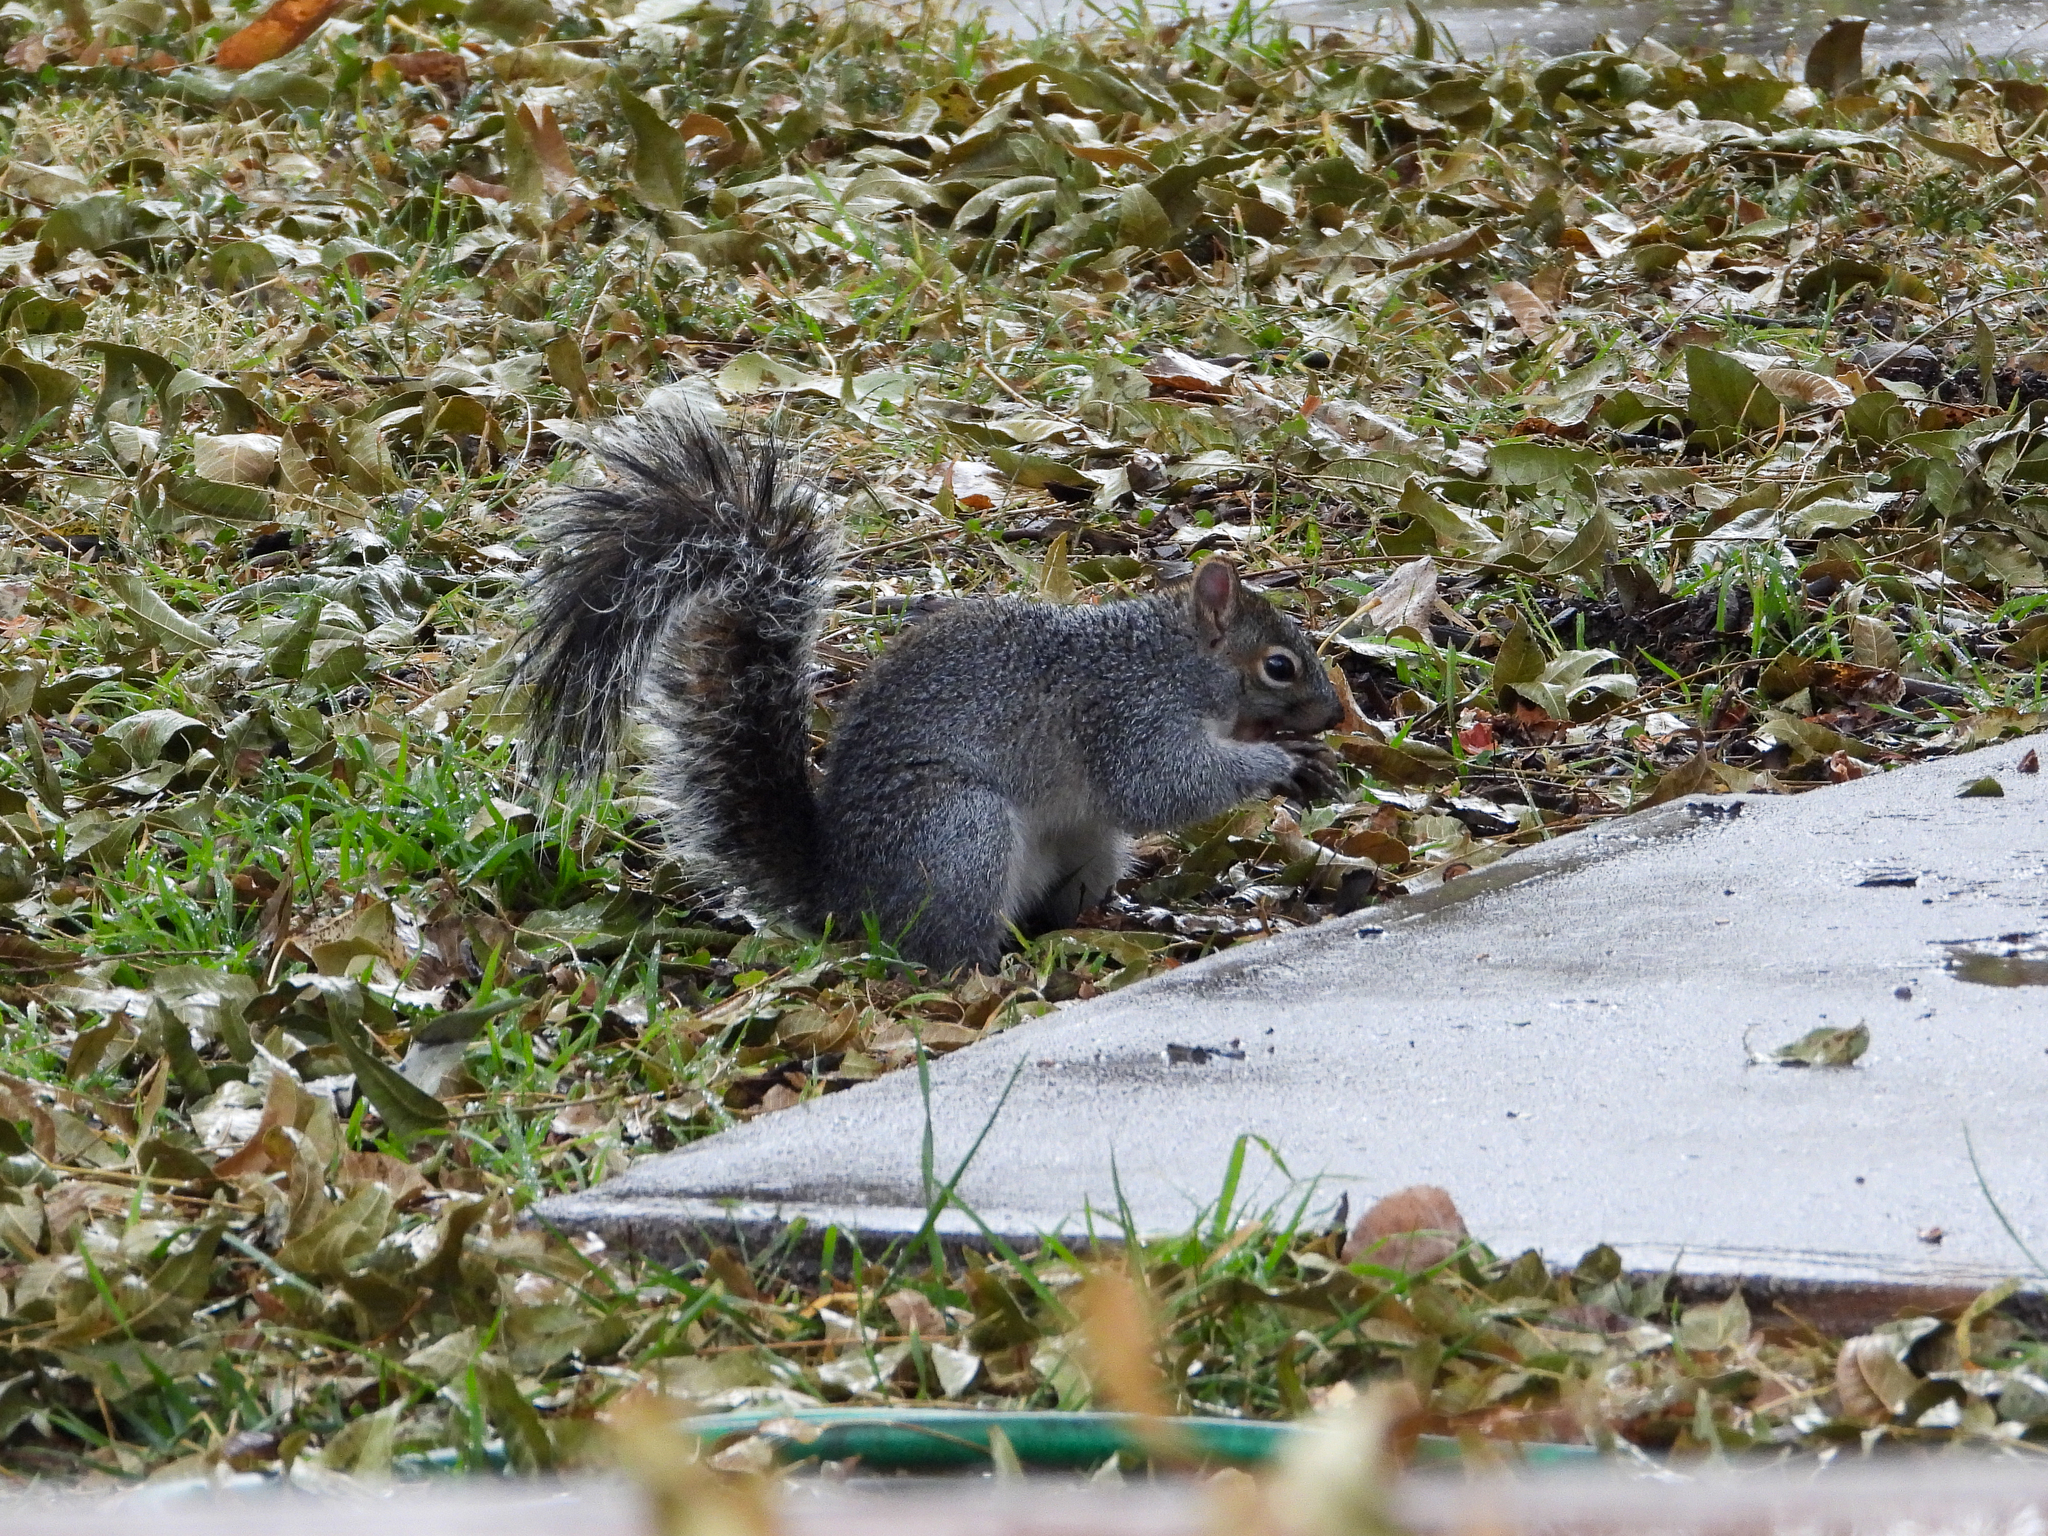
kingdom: Animalia
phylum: Chordata
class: Mammalia
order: Rodentia
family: Sciuridae
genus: Sciurus
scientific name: Sciurus arizonensis
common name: Arizona gray squirrel
